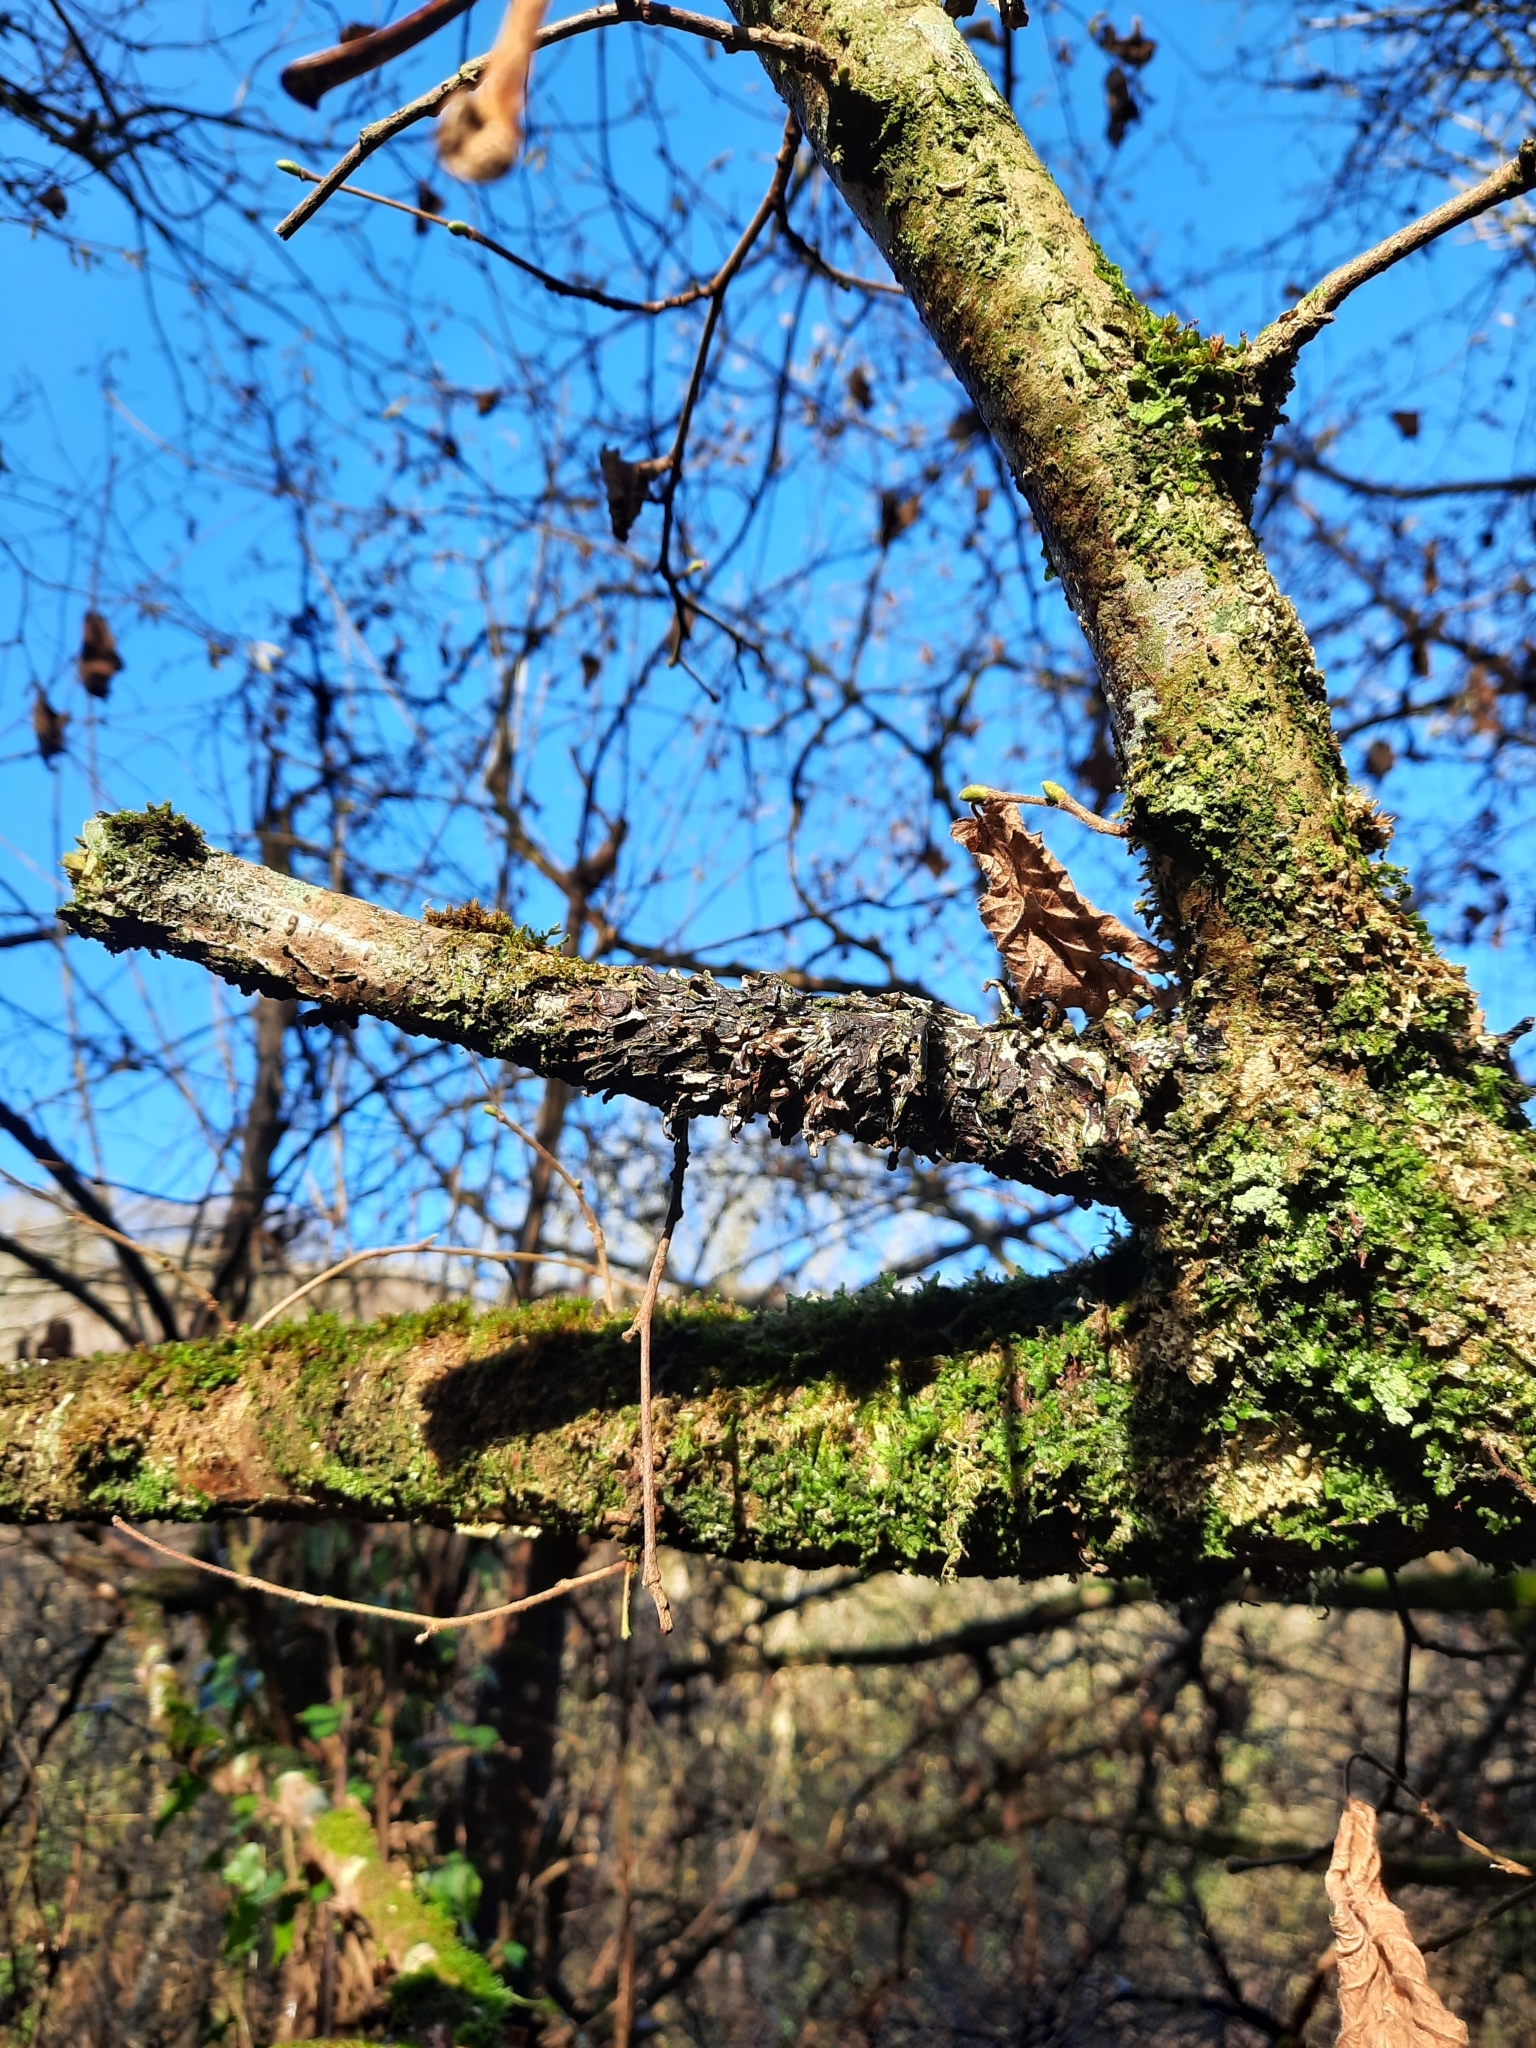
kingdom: Fungi
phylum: Ascomycota
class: Sordariomycetes
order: Hypocreales
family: Hypocreaceae
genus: Hypocreopsis
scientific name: Hypocreopsis rhododendri
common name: Hazel gloves
